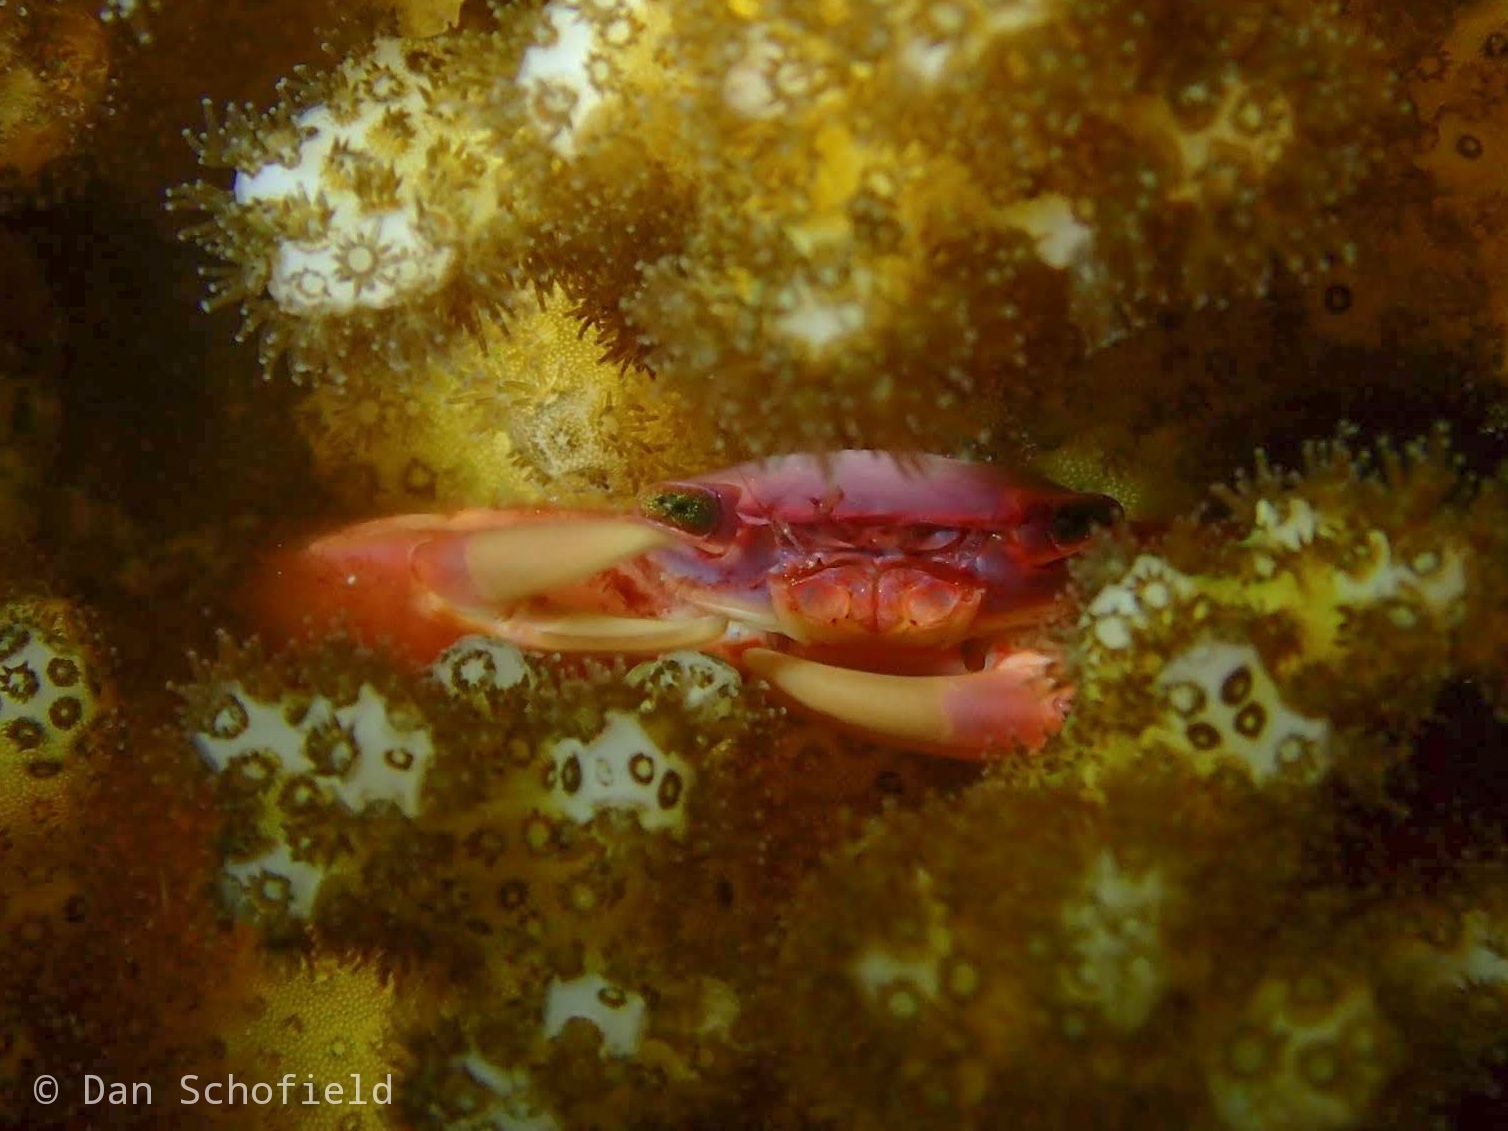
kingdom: Animalia
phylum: Arthropoda
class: Malacostraca
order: Decapoda
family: Trapeziidae
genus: Trapezia
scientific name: Trapezia cymodoce
